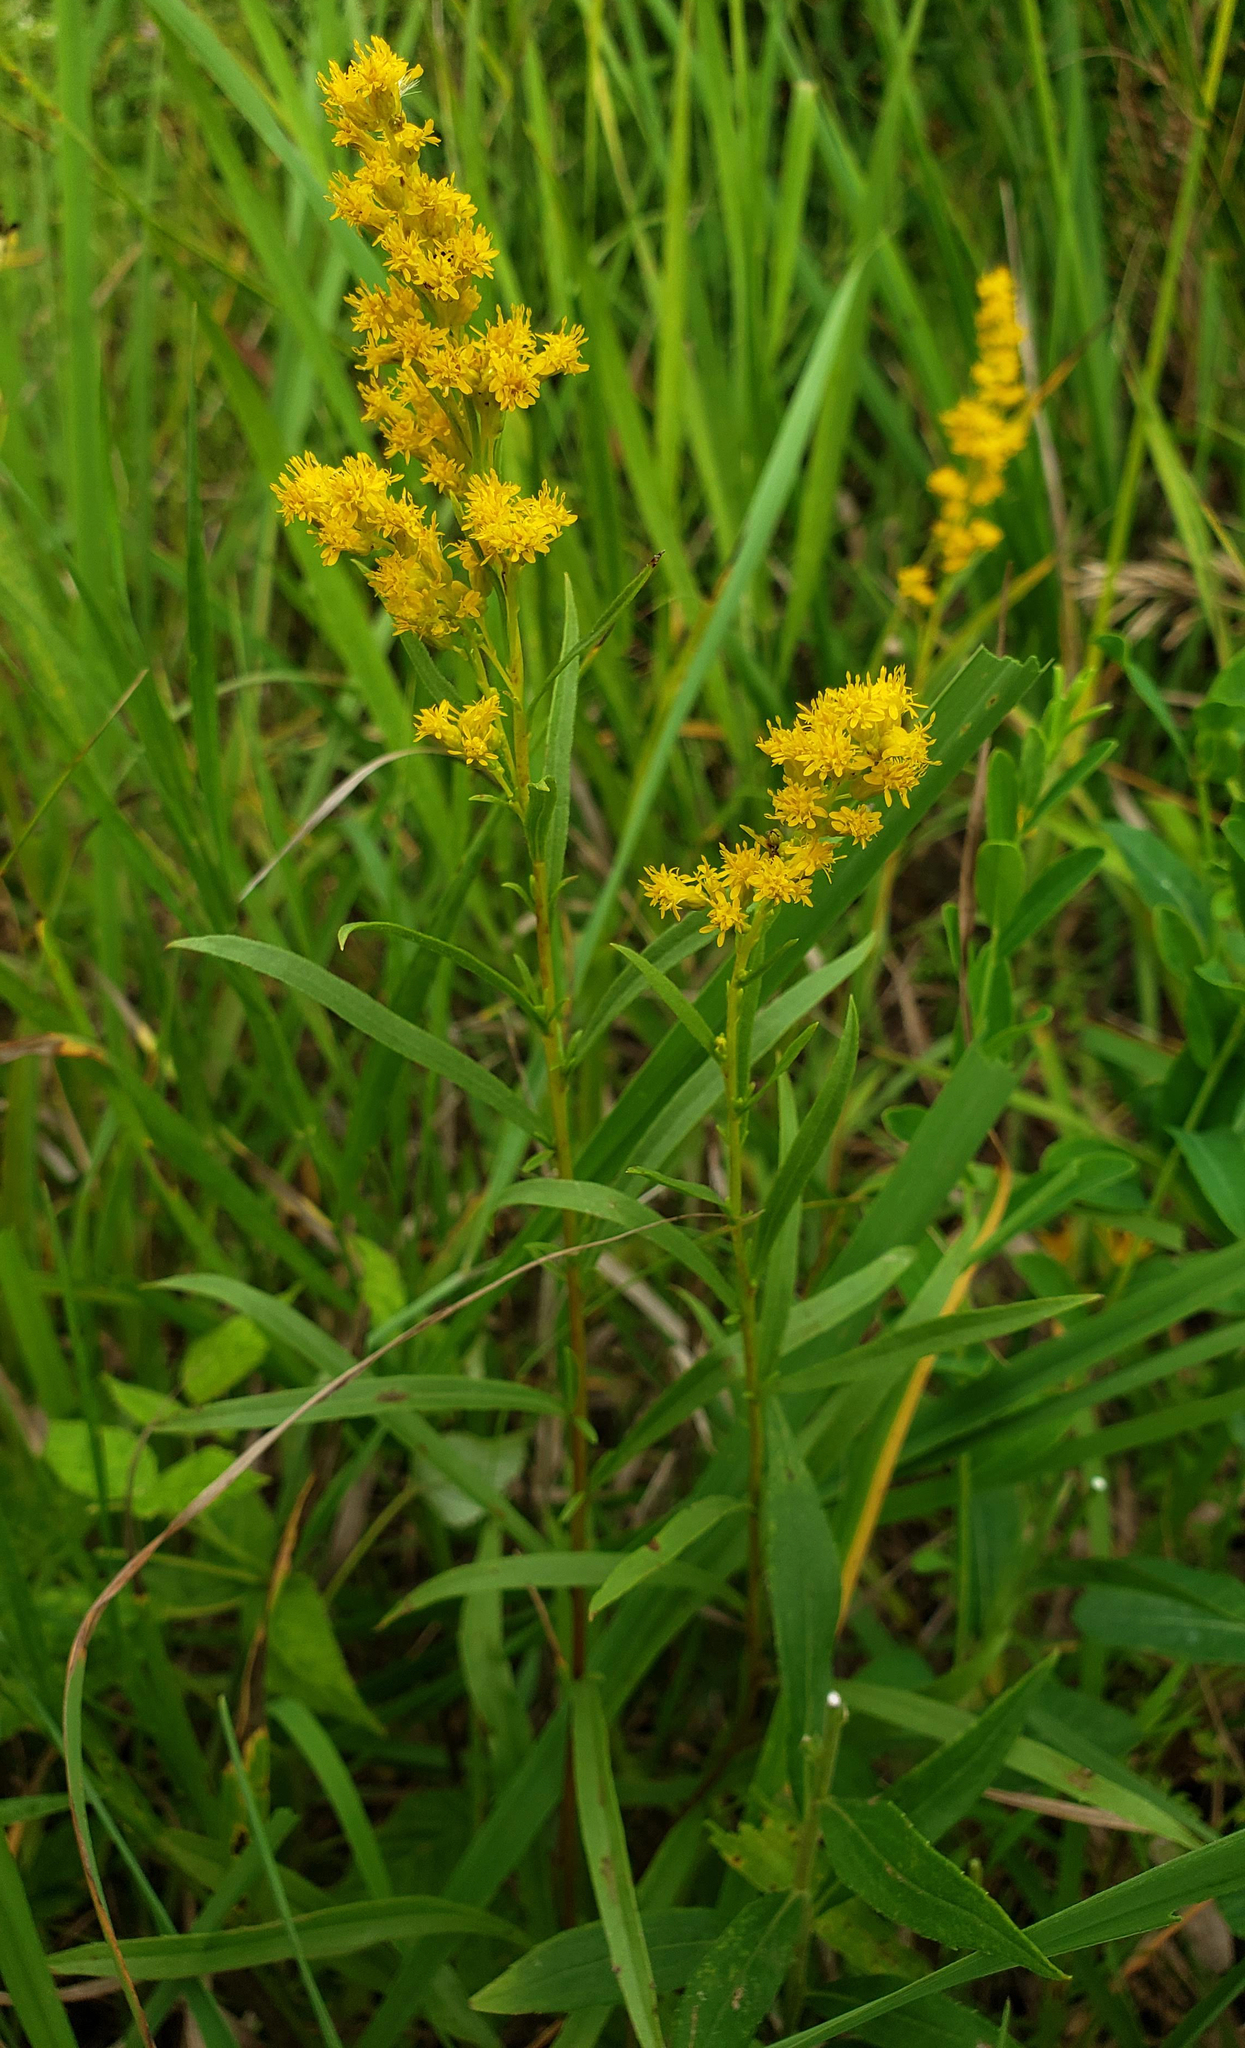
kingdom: Plantae
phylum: Tracheophyta
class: Magnoliopsida
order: Asterales
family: Asteraceae
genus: Solidago
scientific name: Solidago juncea
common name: Early goldenrod
